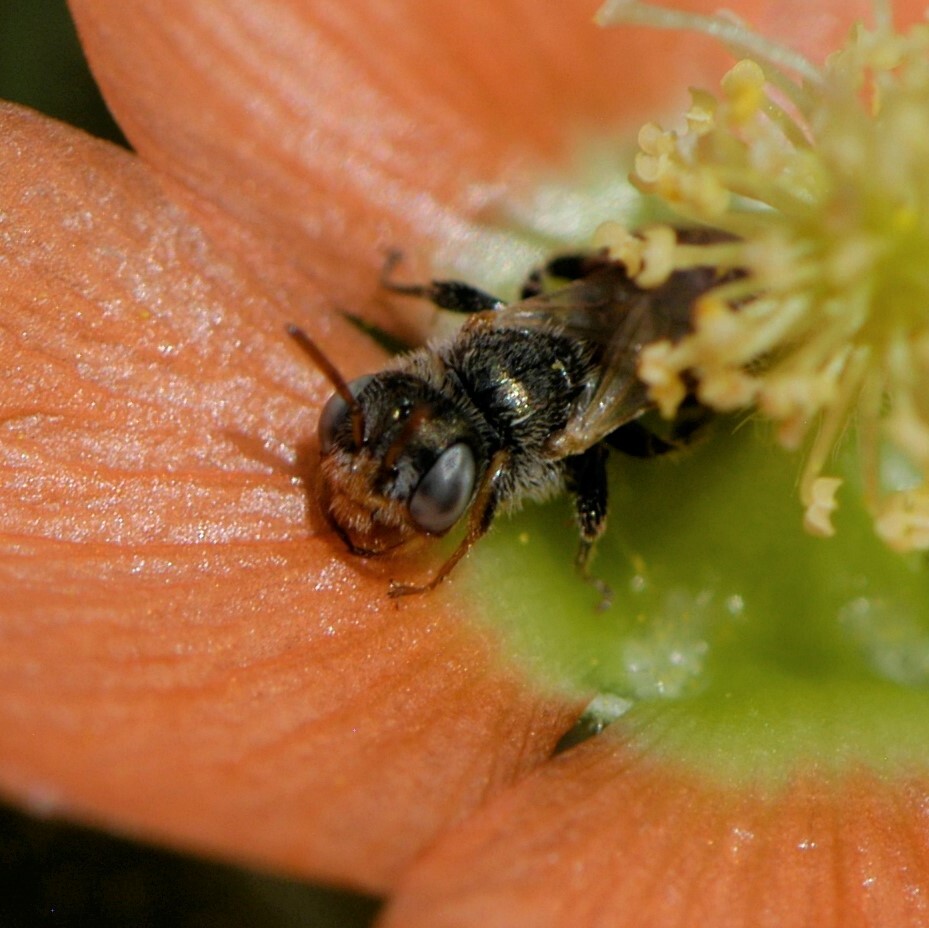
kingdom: Animalia
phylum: Arthropoda
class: Insecta
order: Hymenoptera
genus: Macroteropsis
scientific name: Macroteropsis
